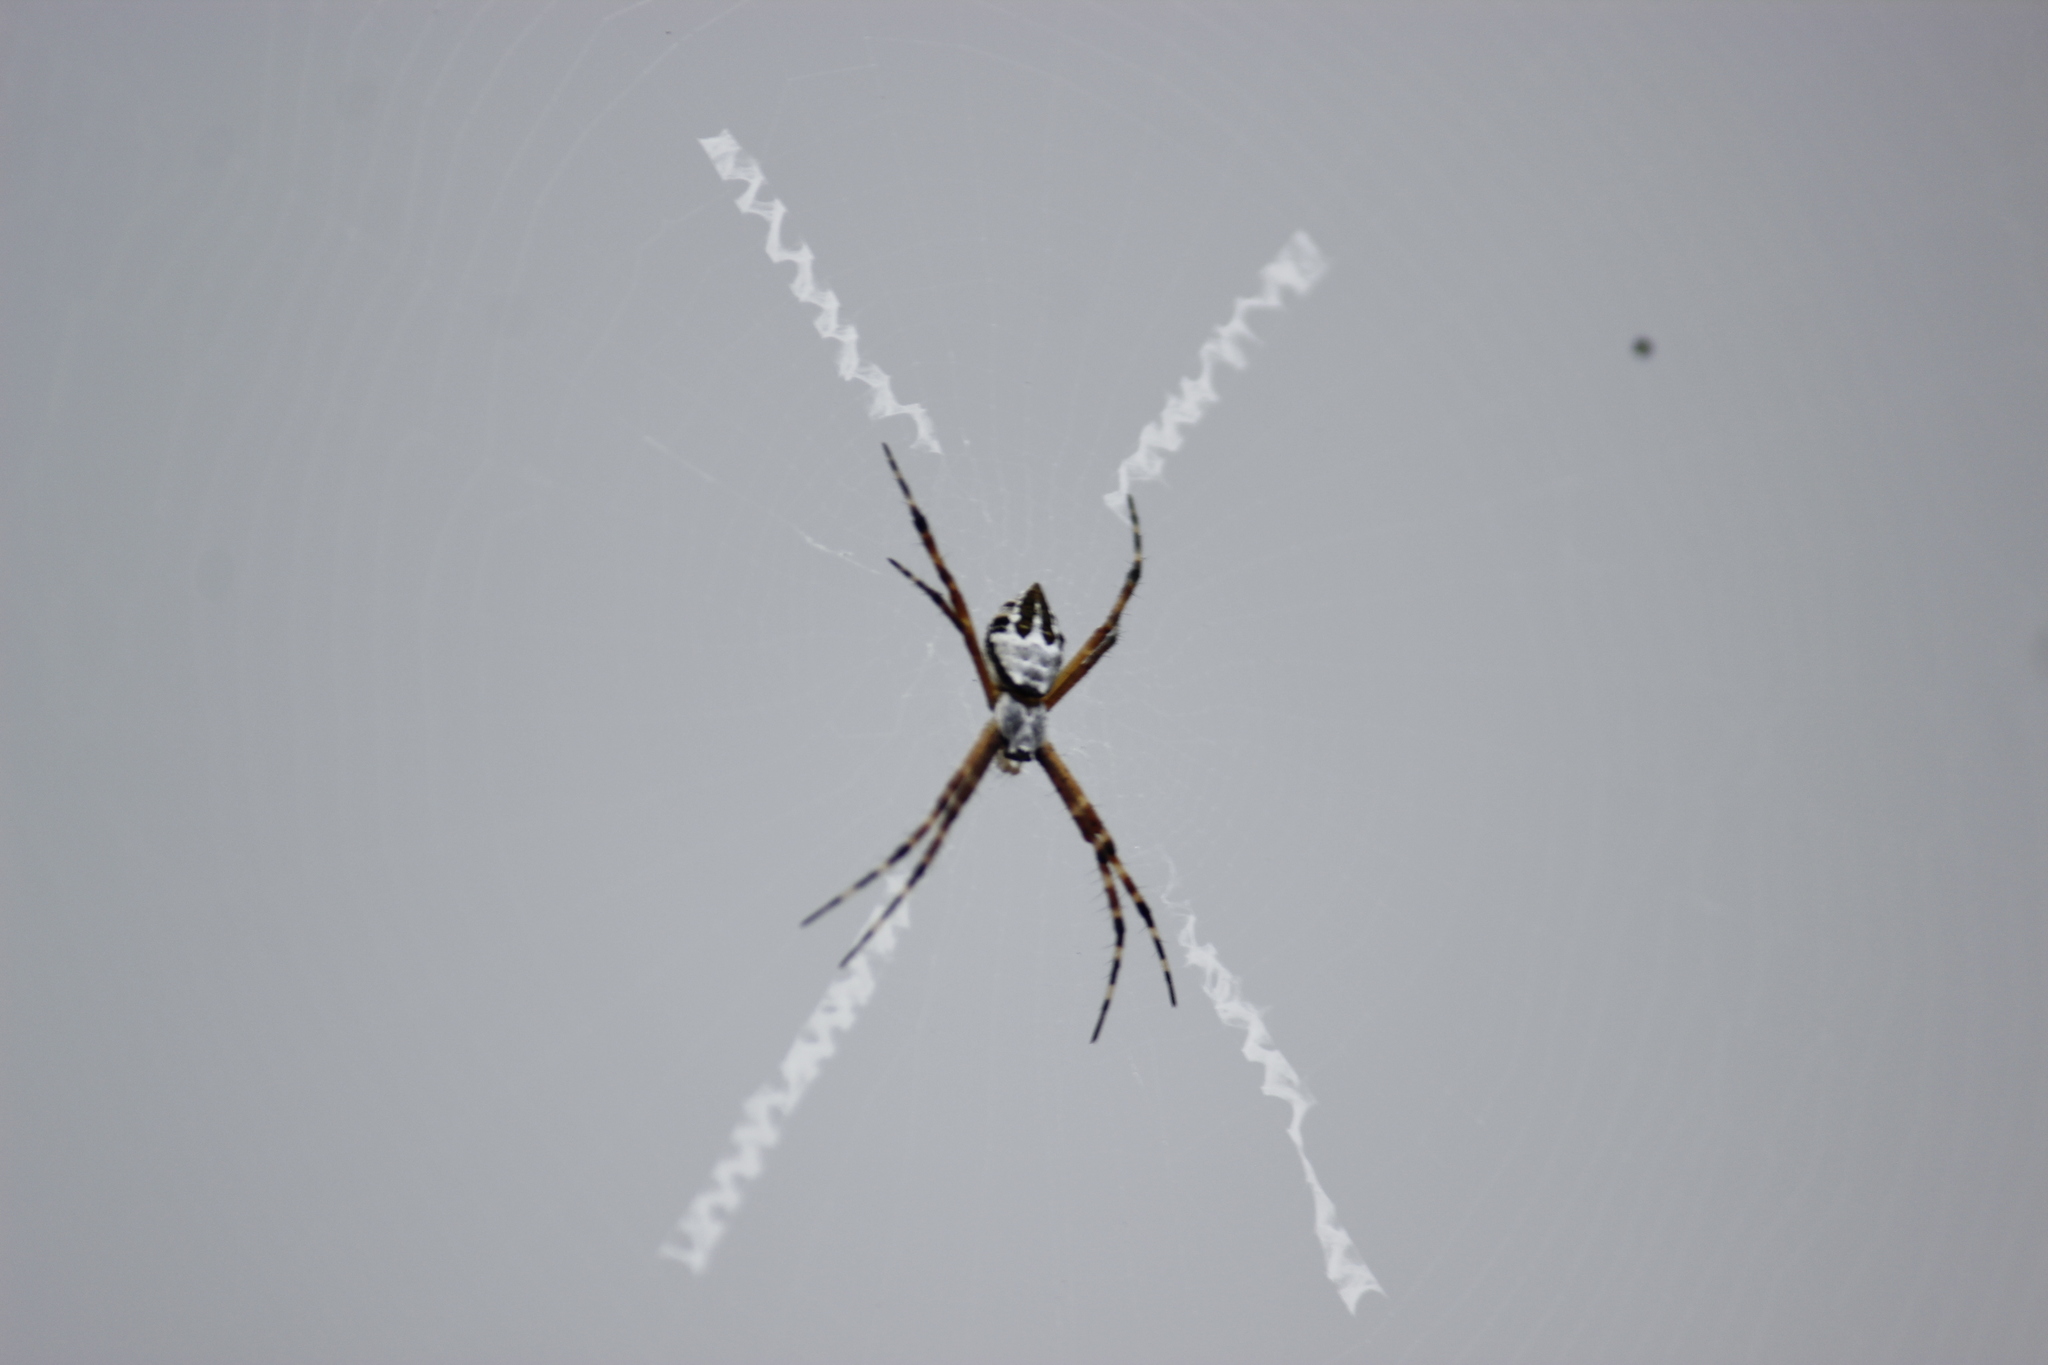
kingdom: Animalia
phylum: Arthropoda
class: Arachnida
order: Araneae
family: Araneidae
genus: Argiope
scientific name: Argiope argentata
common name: Orb weavers
